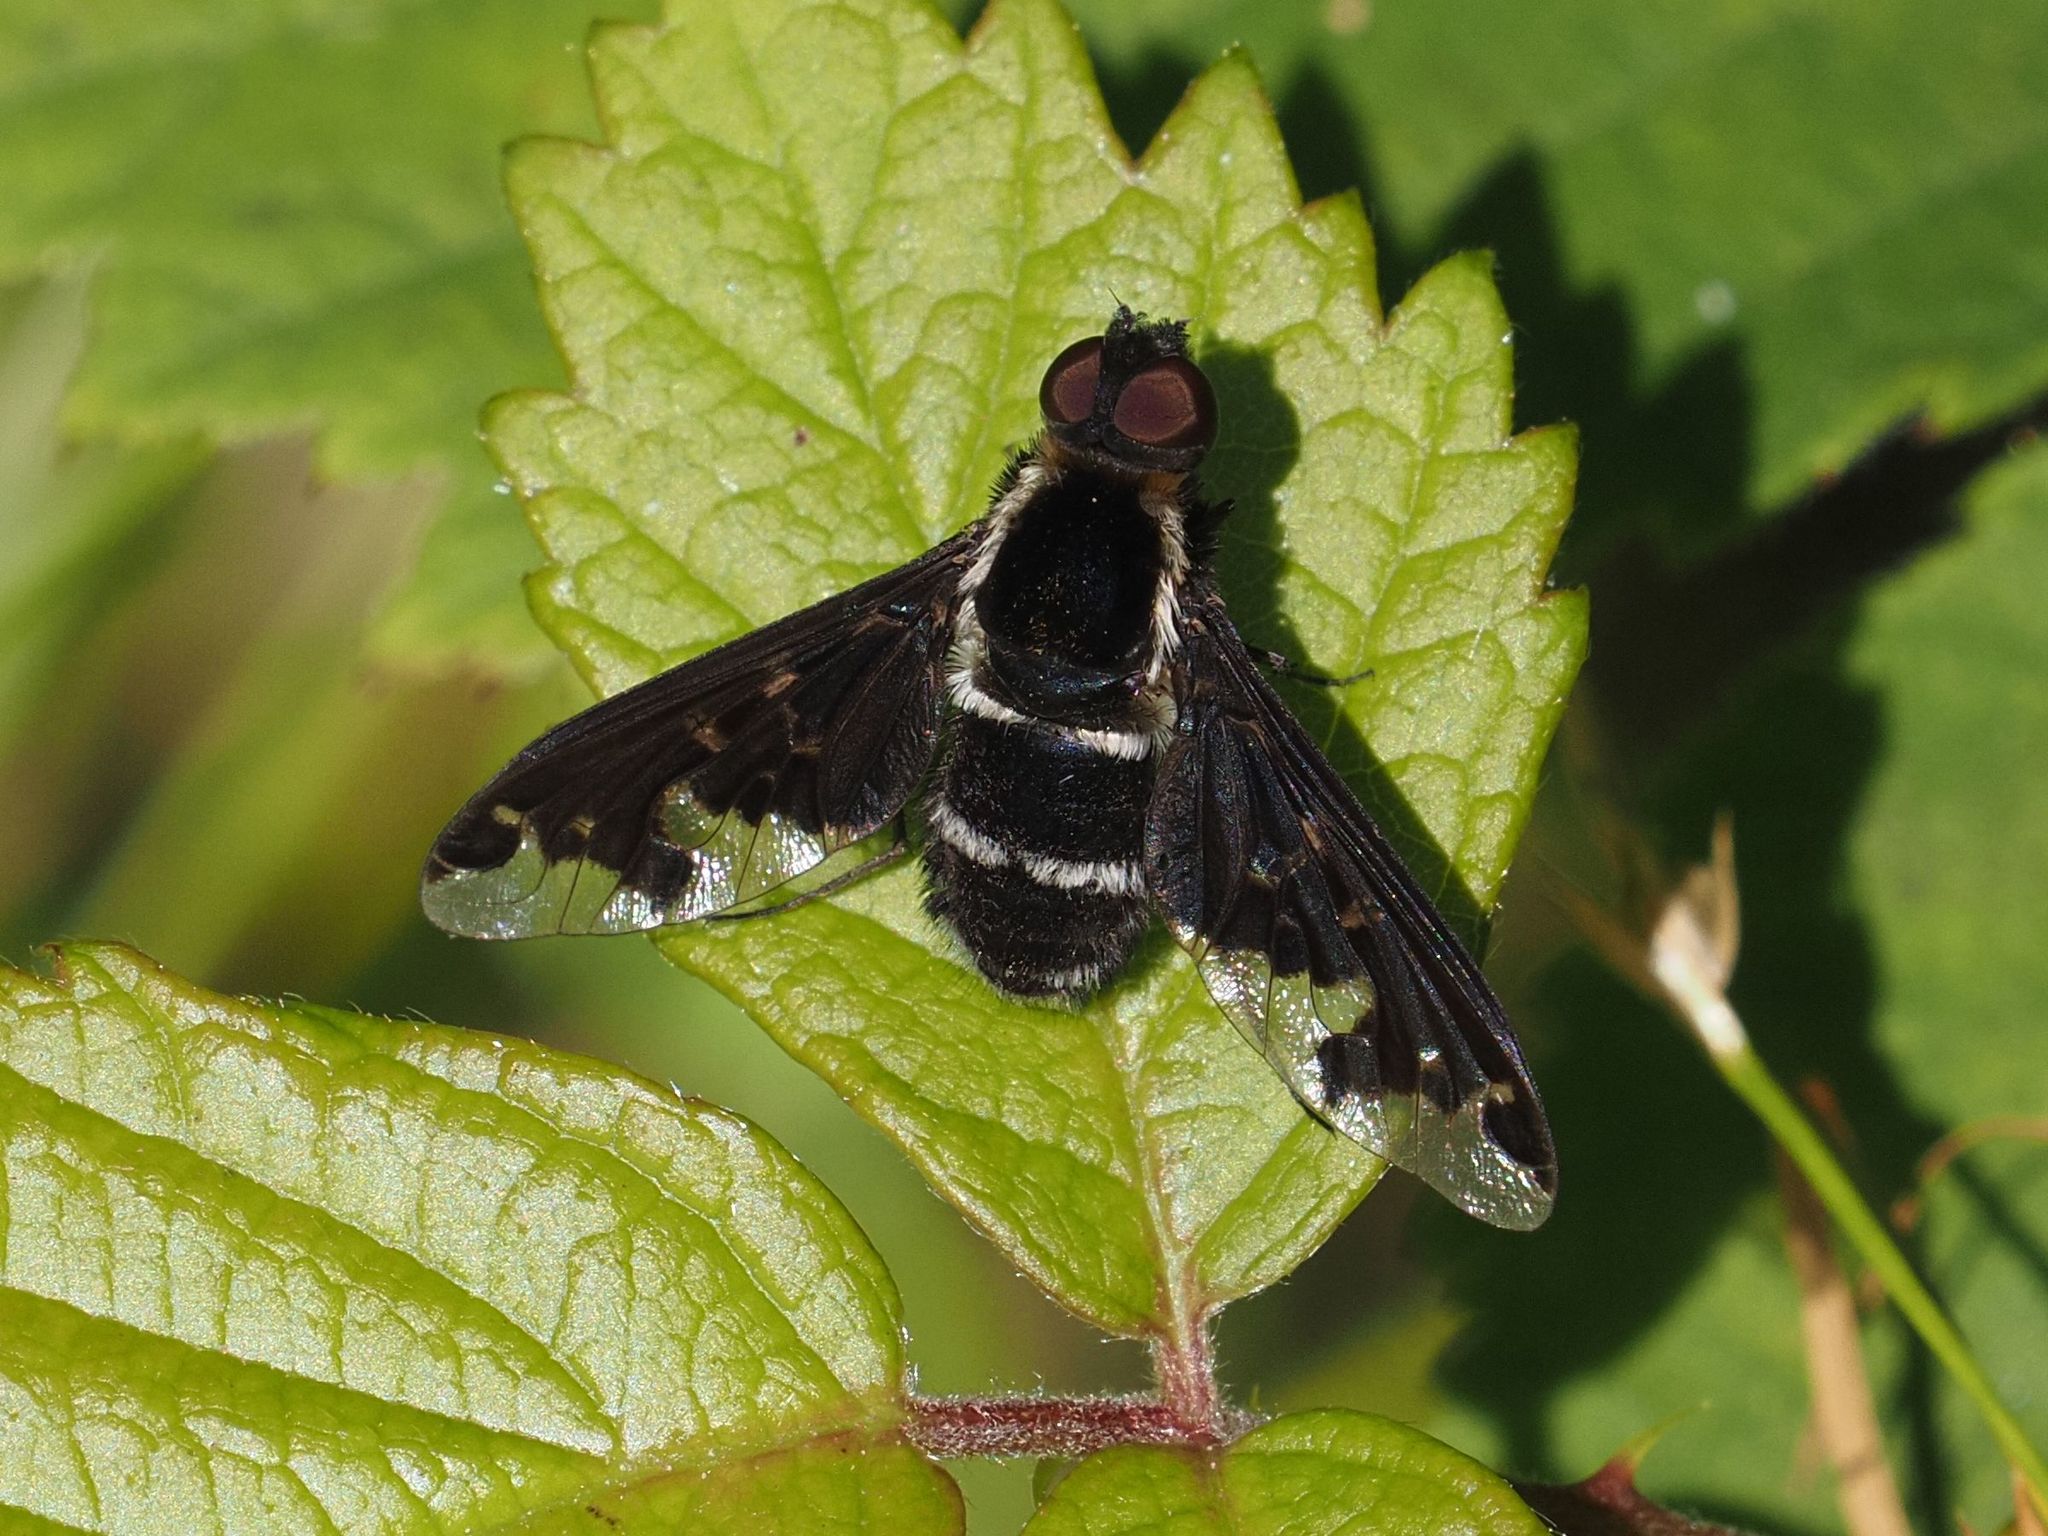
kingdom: Animalia
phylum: Arthropoda
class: Insecta
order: Diptera
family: Bombyliidae
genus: Hemipenthes
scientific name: Hemipenthes maura
